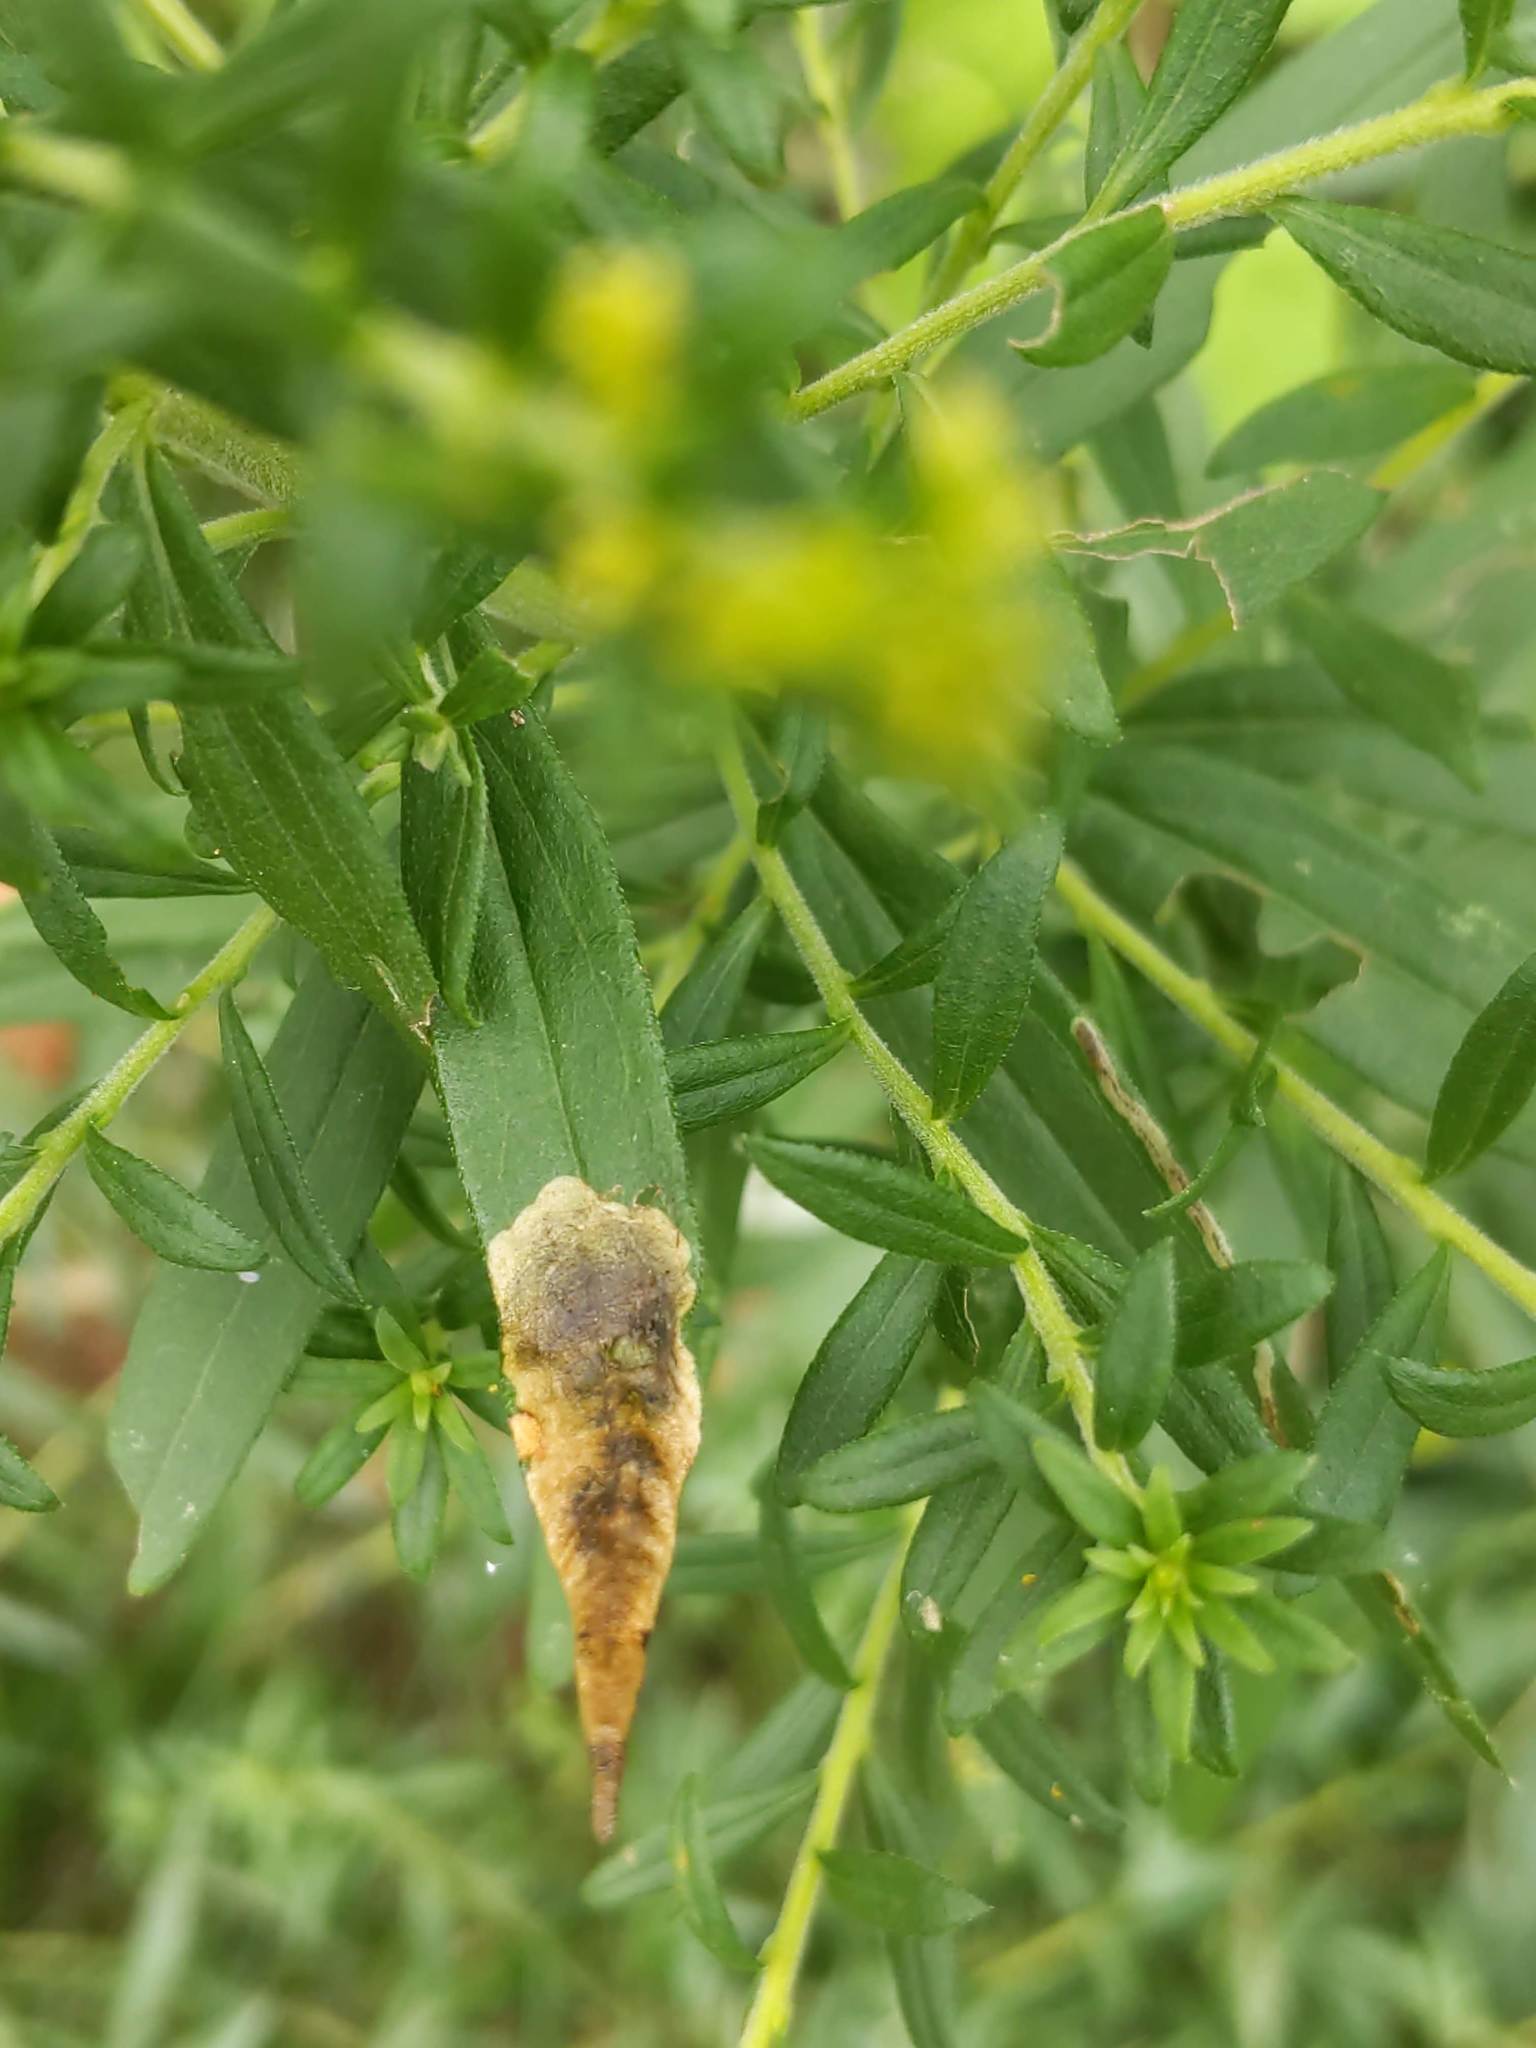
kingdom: Animalia
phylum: Arthropoda
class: Insecta
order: Diptera
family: Agromyzidae
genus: Nemorimyza
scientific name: Nemorimyza posticata
